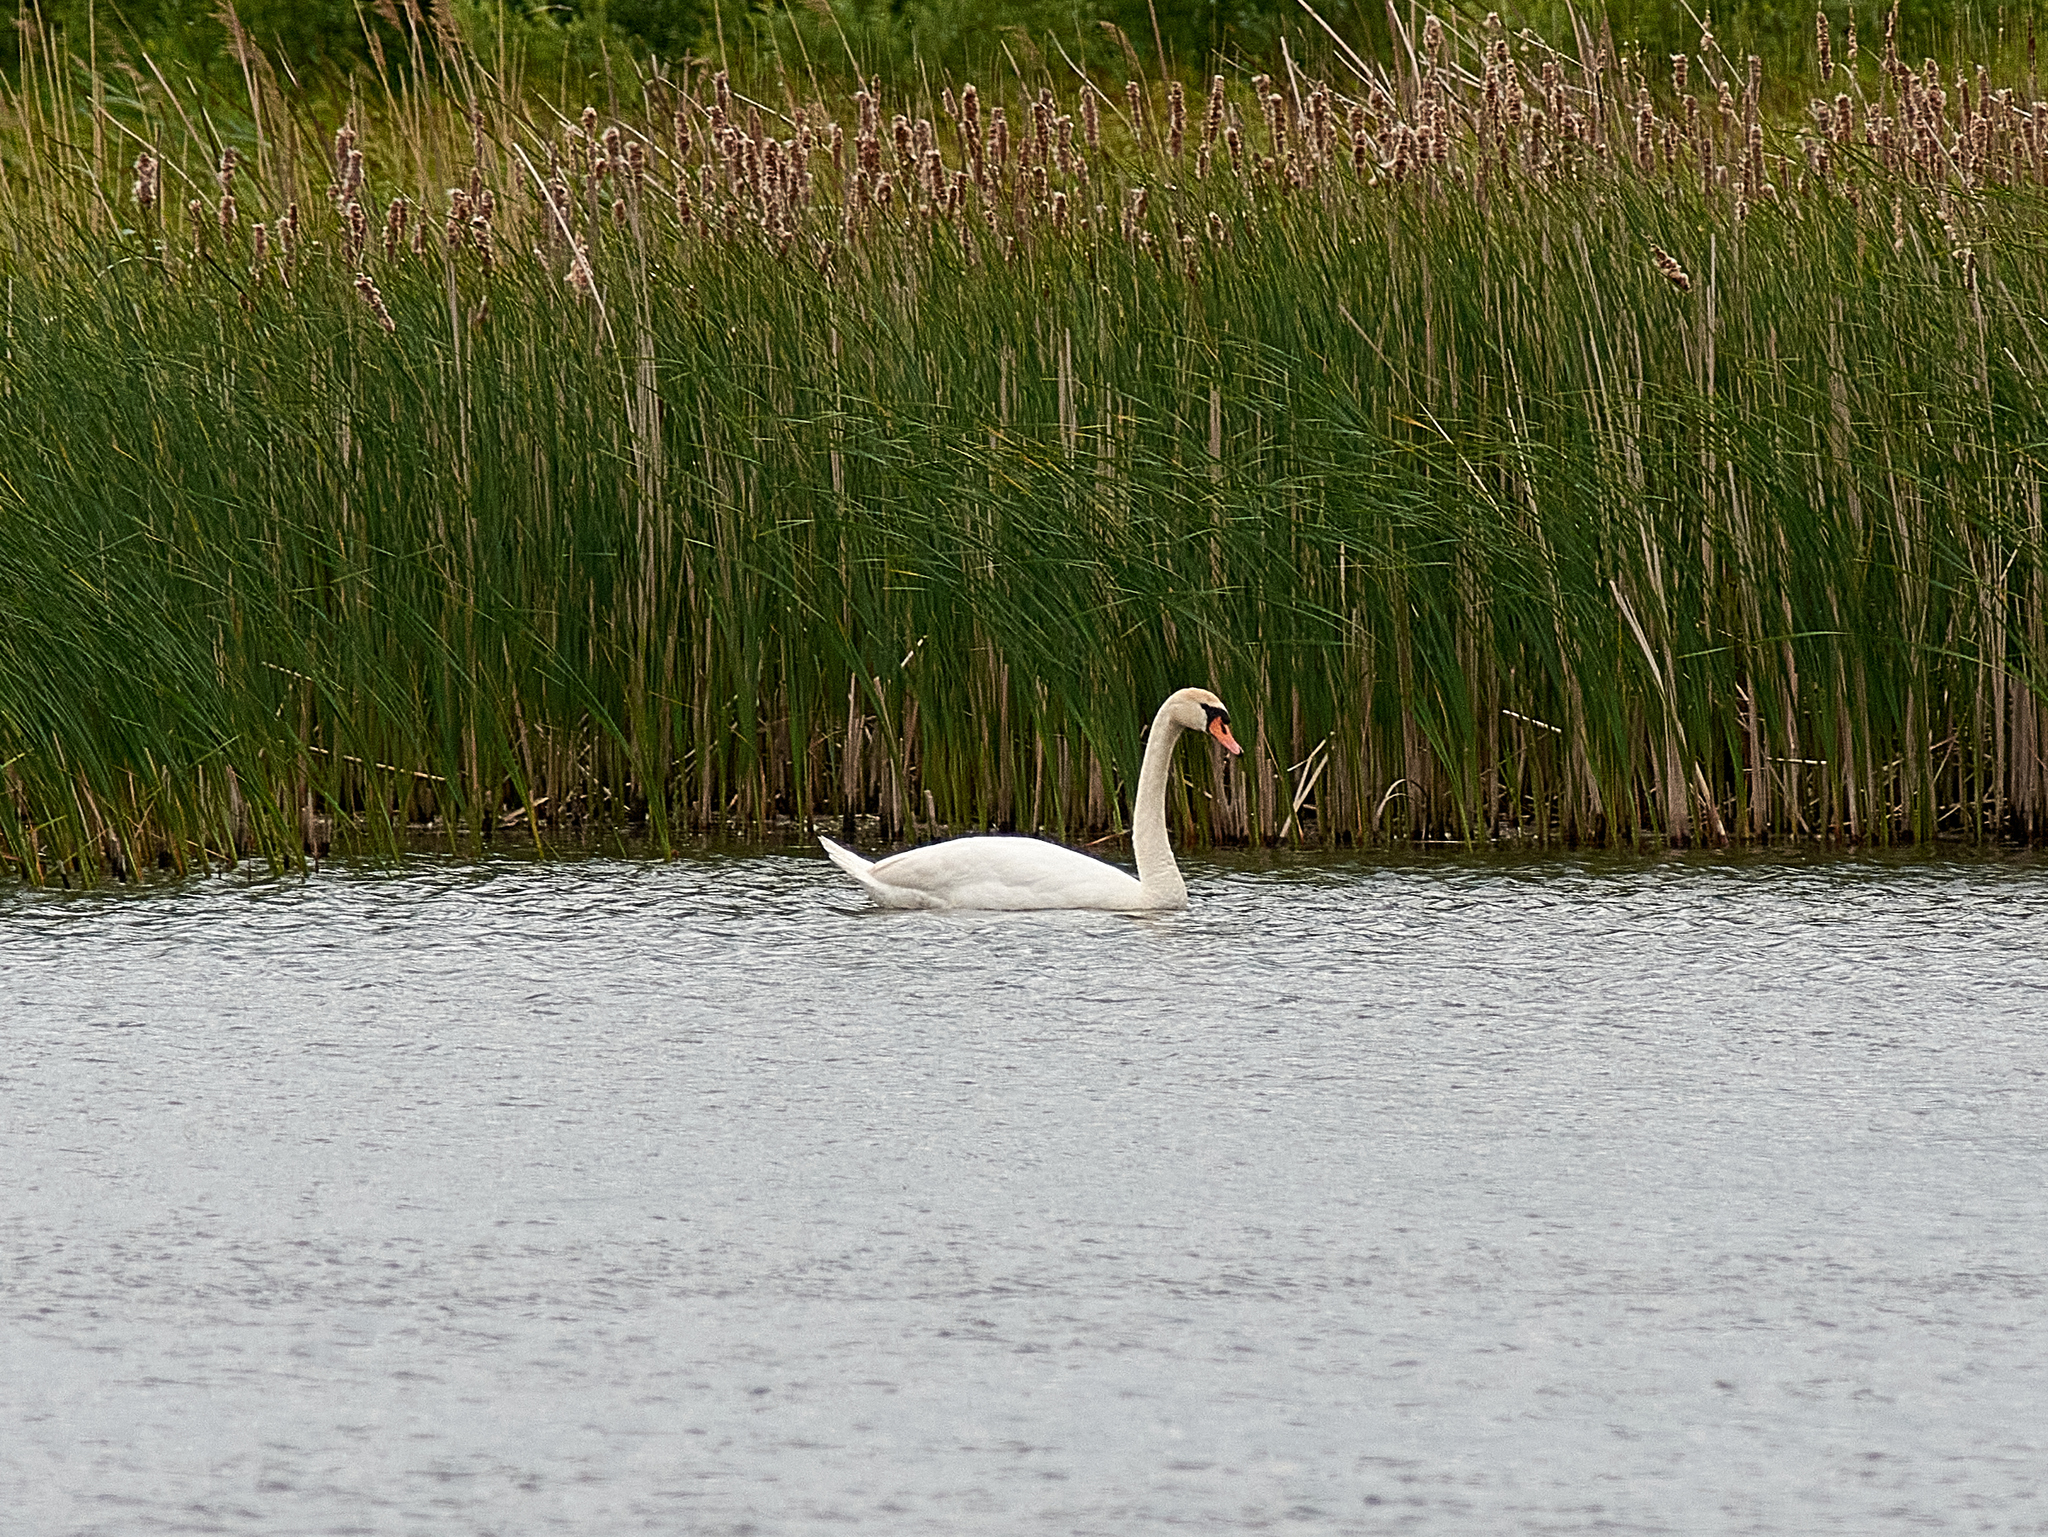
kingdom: Animalia
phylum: Chordata
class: Aves
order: Anseriformes
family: Anatidae
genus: Cygnus
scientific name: Cygnus olor
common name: Mute swan
